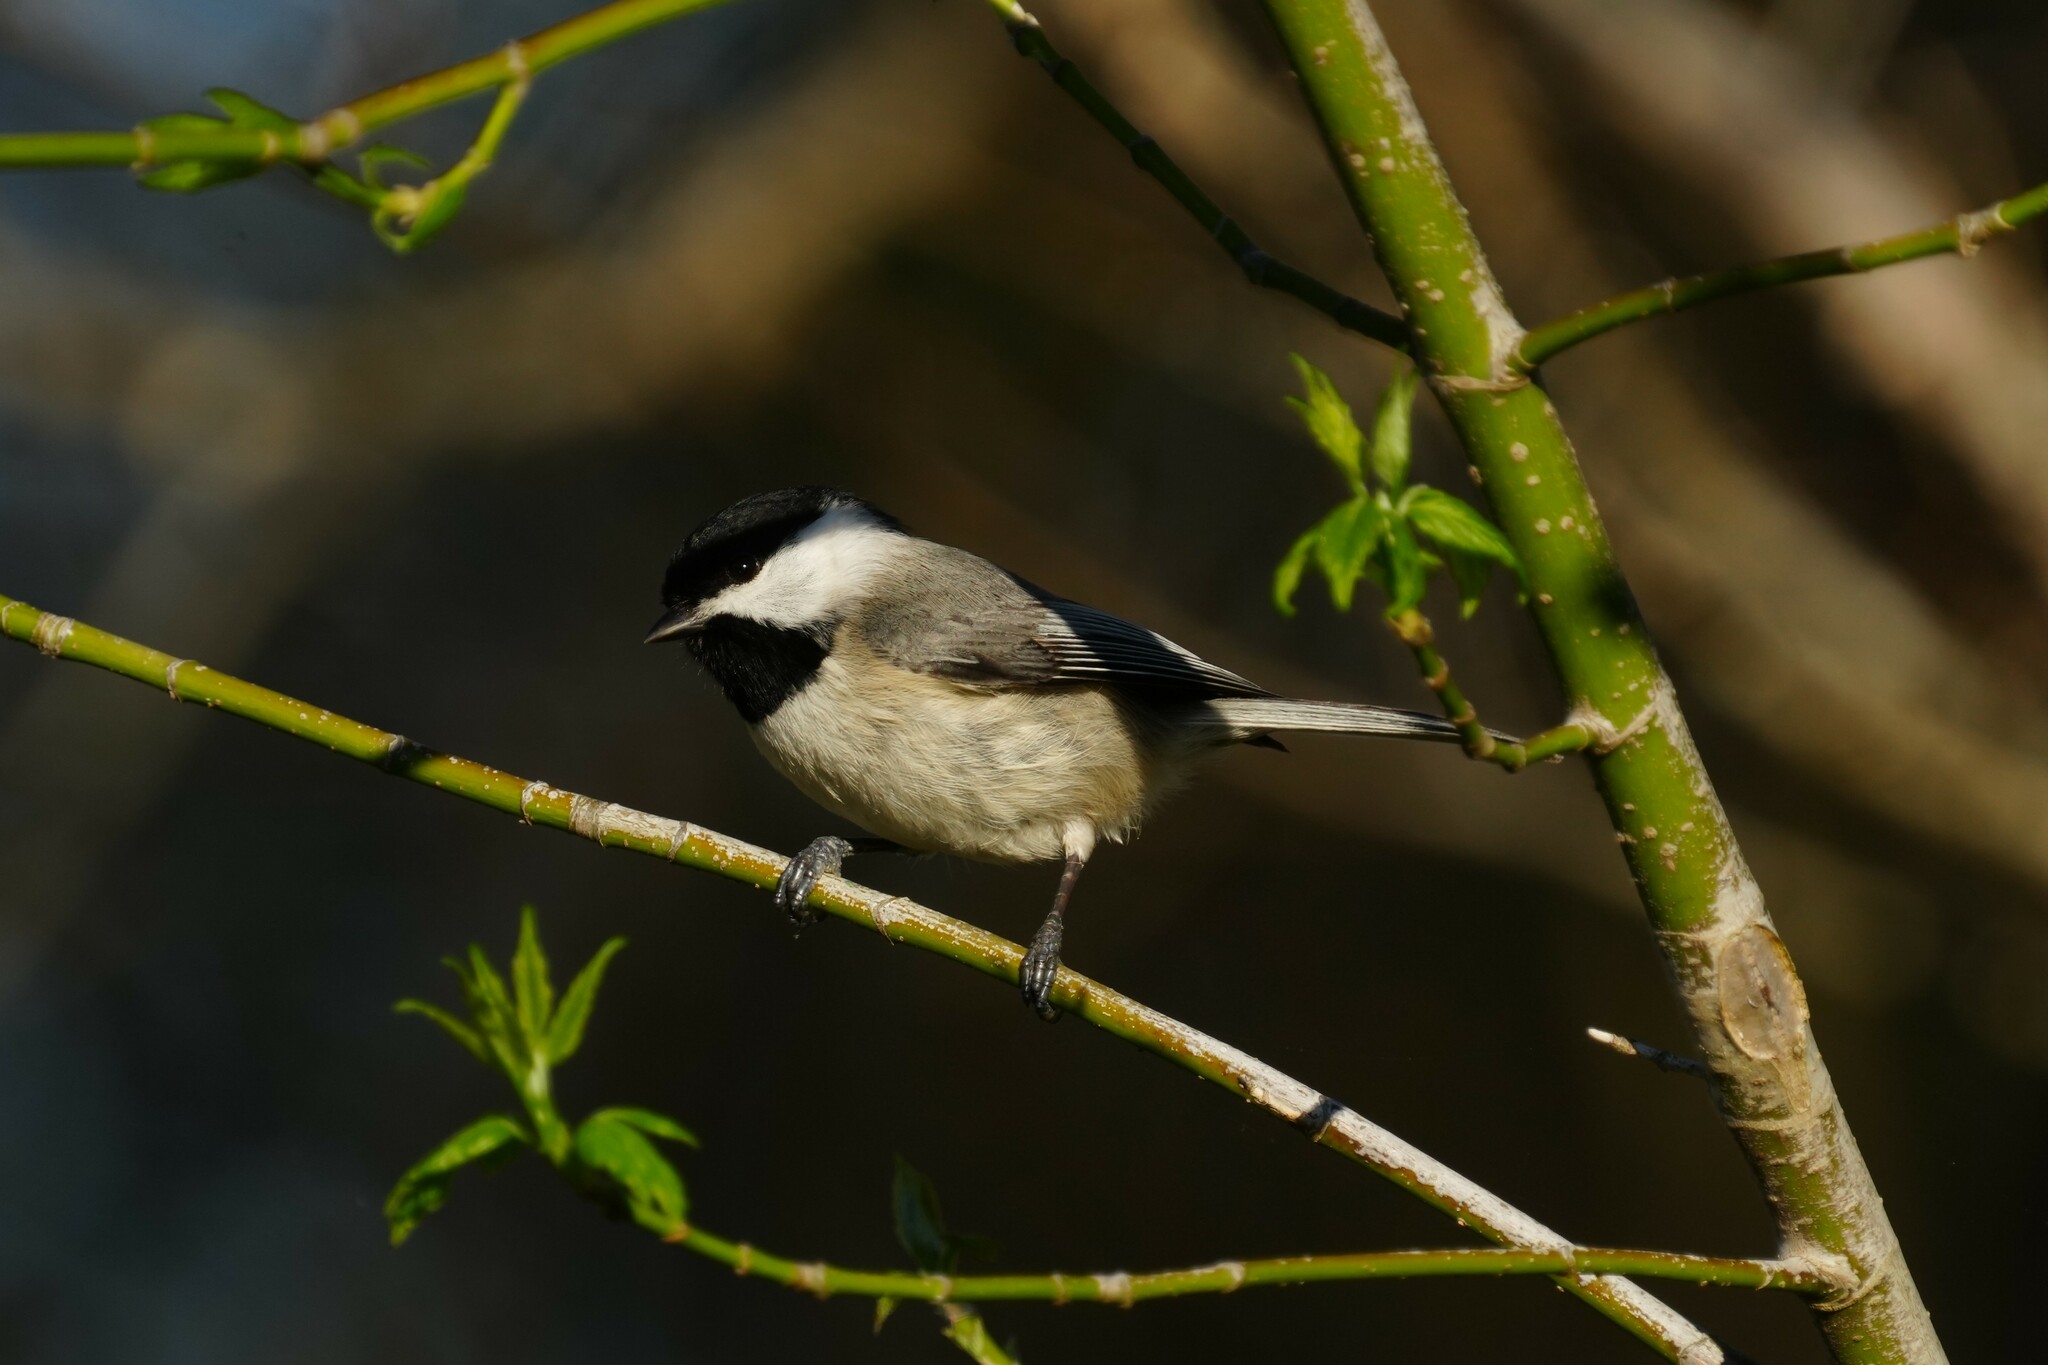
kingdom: Animalia
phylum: Chordata
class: Aves
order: Passeriformes
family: Paridae
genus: Poecile
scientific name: Poecile carolinensis
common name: Carolina chickadee
